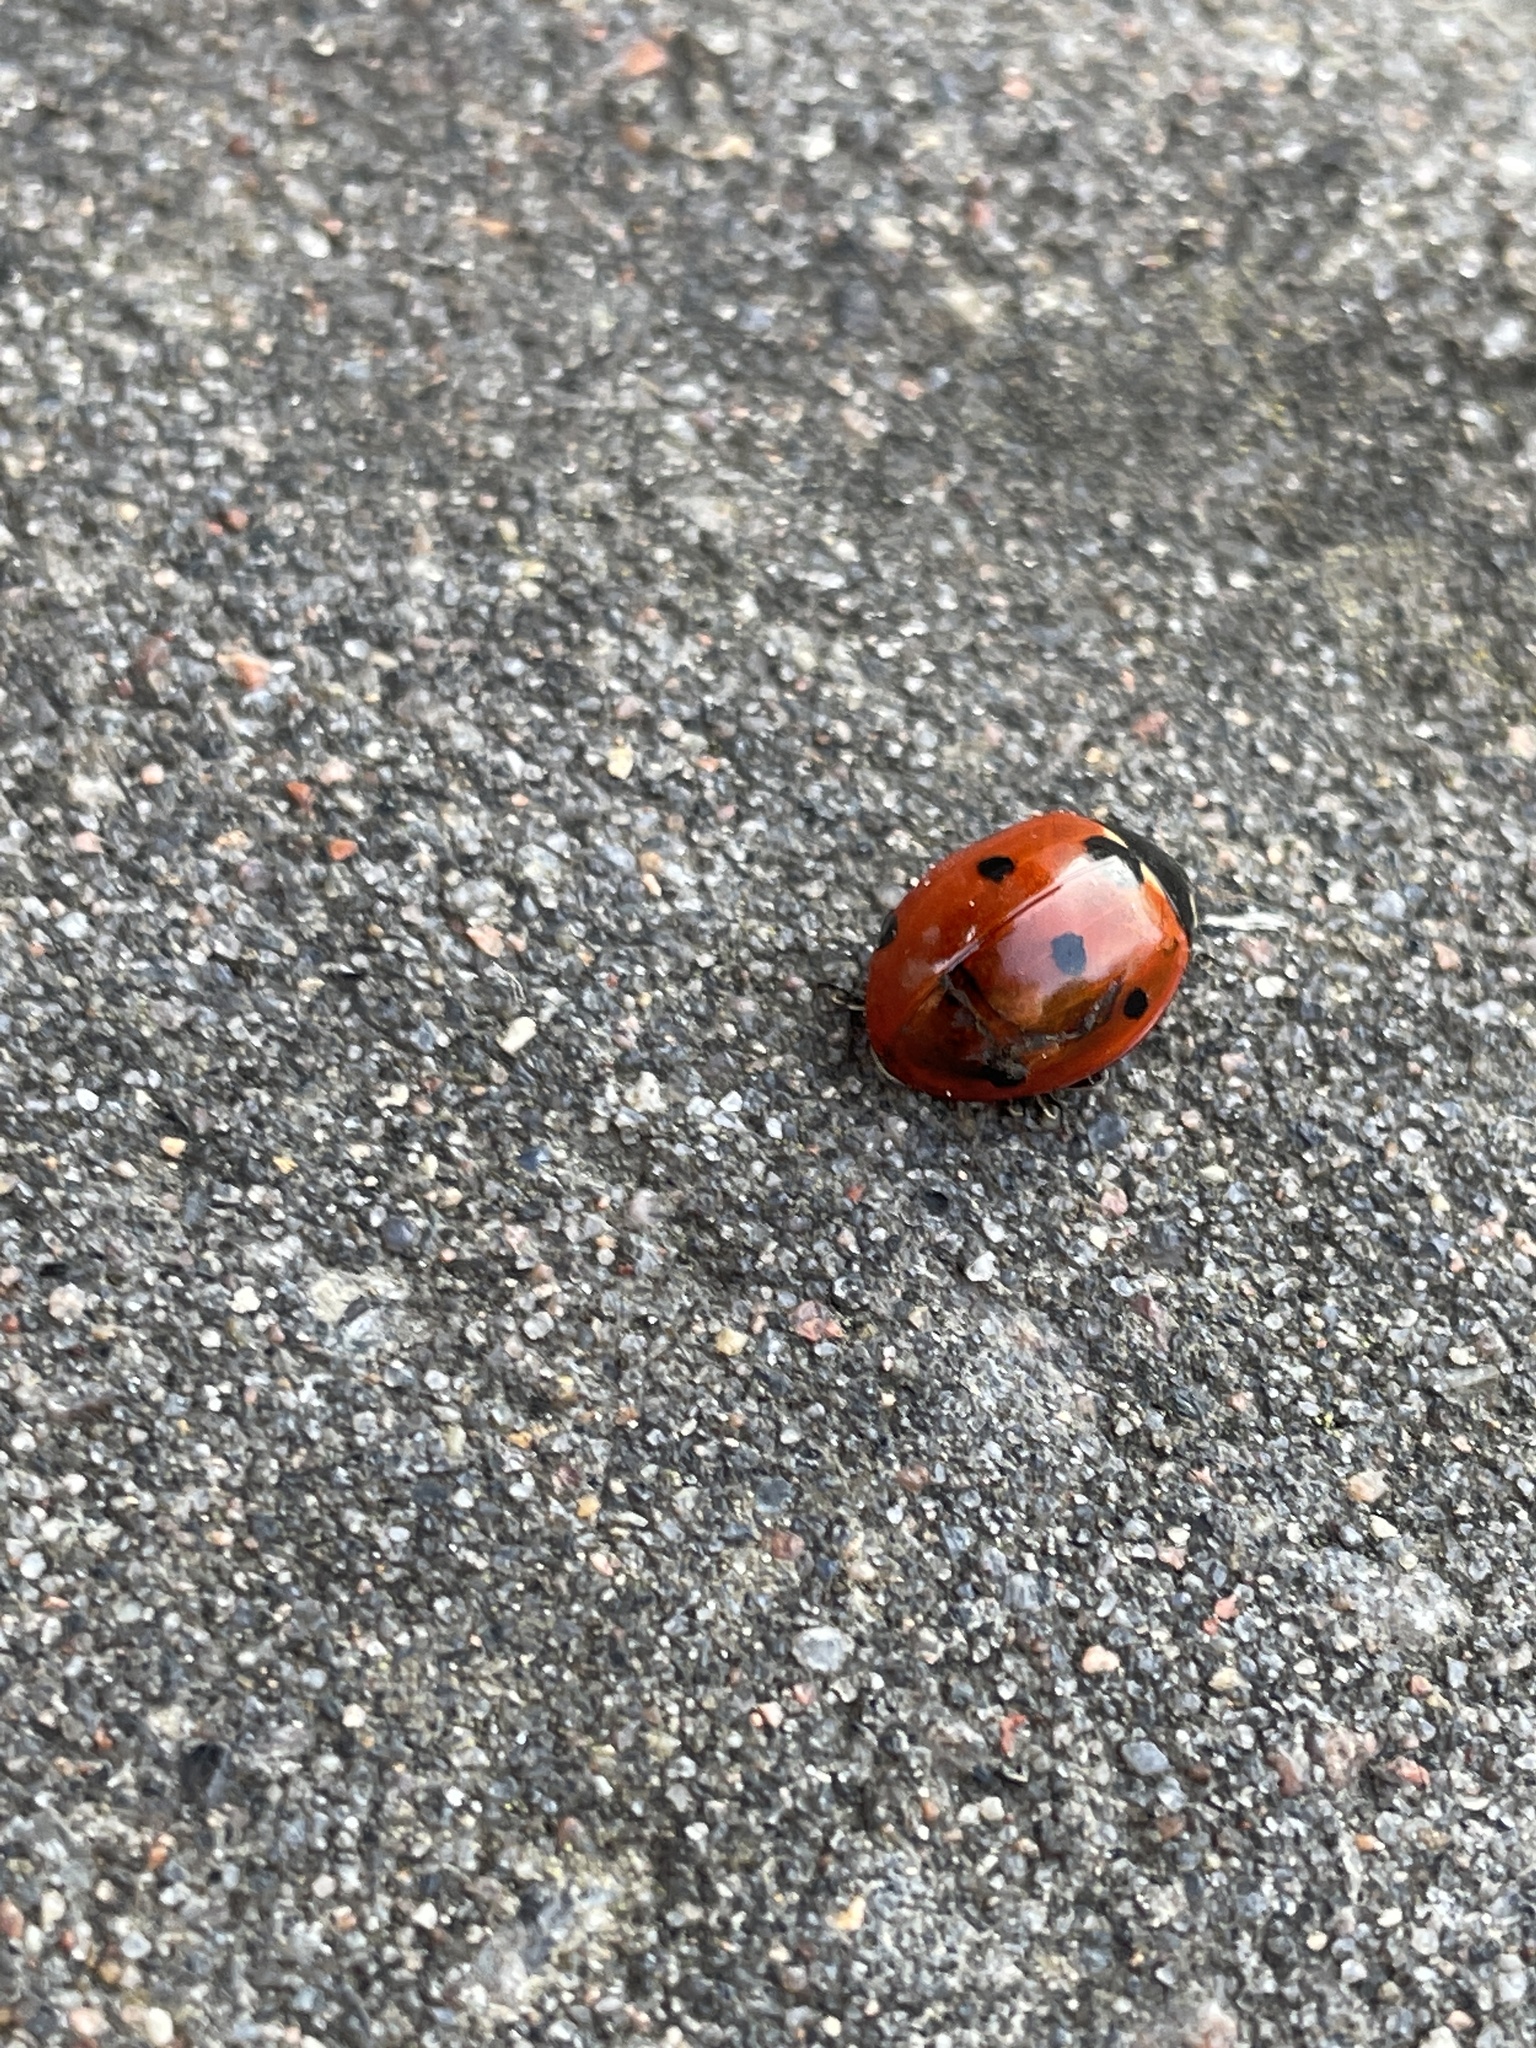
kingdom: Animalia
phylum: Arthropoda
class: Insecta
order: Coleoptera
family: Coccinellidae
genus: Coccinella
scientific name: Coccinella septempunctata
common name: Sevenspotted lady beetle
